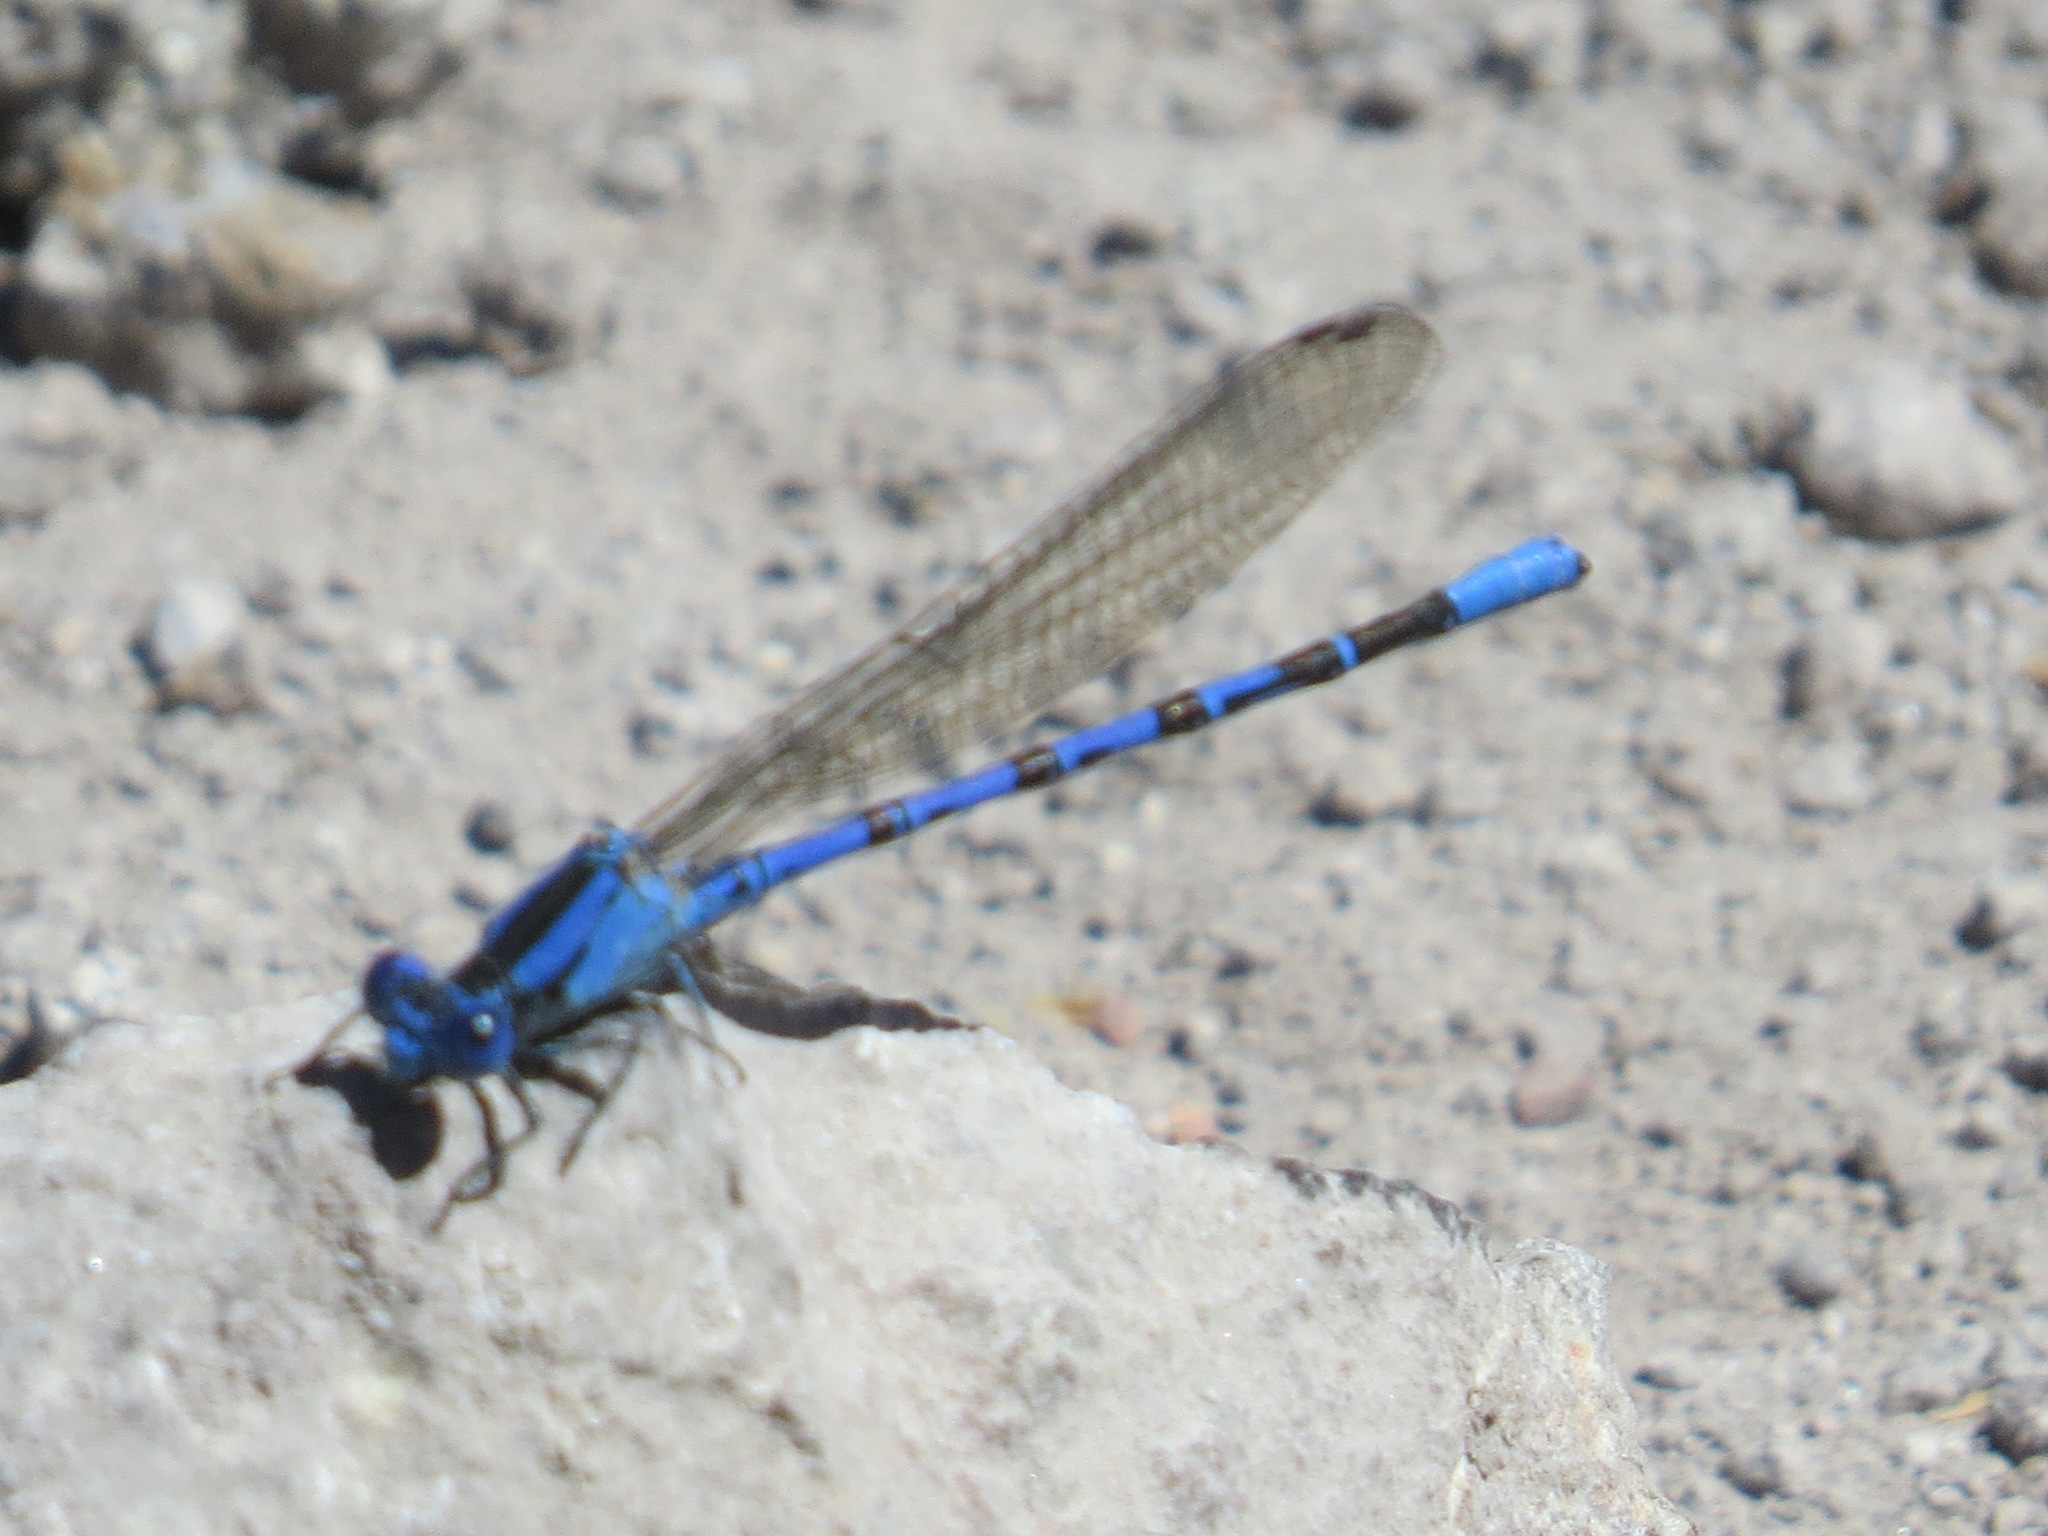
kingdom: Animalia
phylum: Arthropoda
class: Insecta
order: Odonata
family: Coenagrionidae
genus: Argia
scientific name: Argia vivida
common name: Vivid dancer
